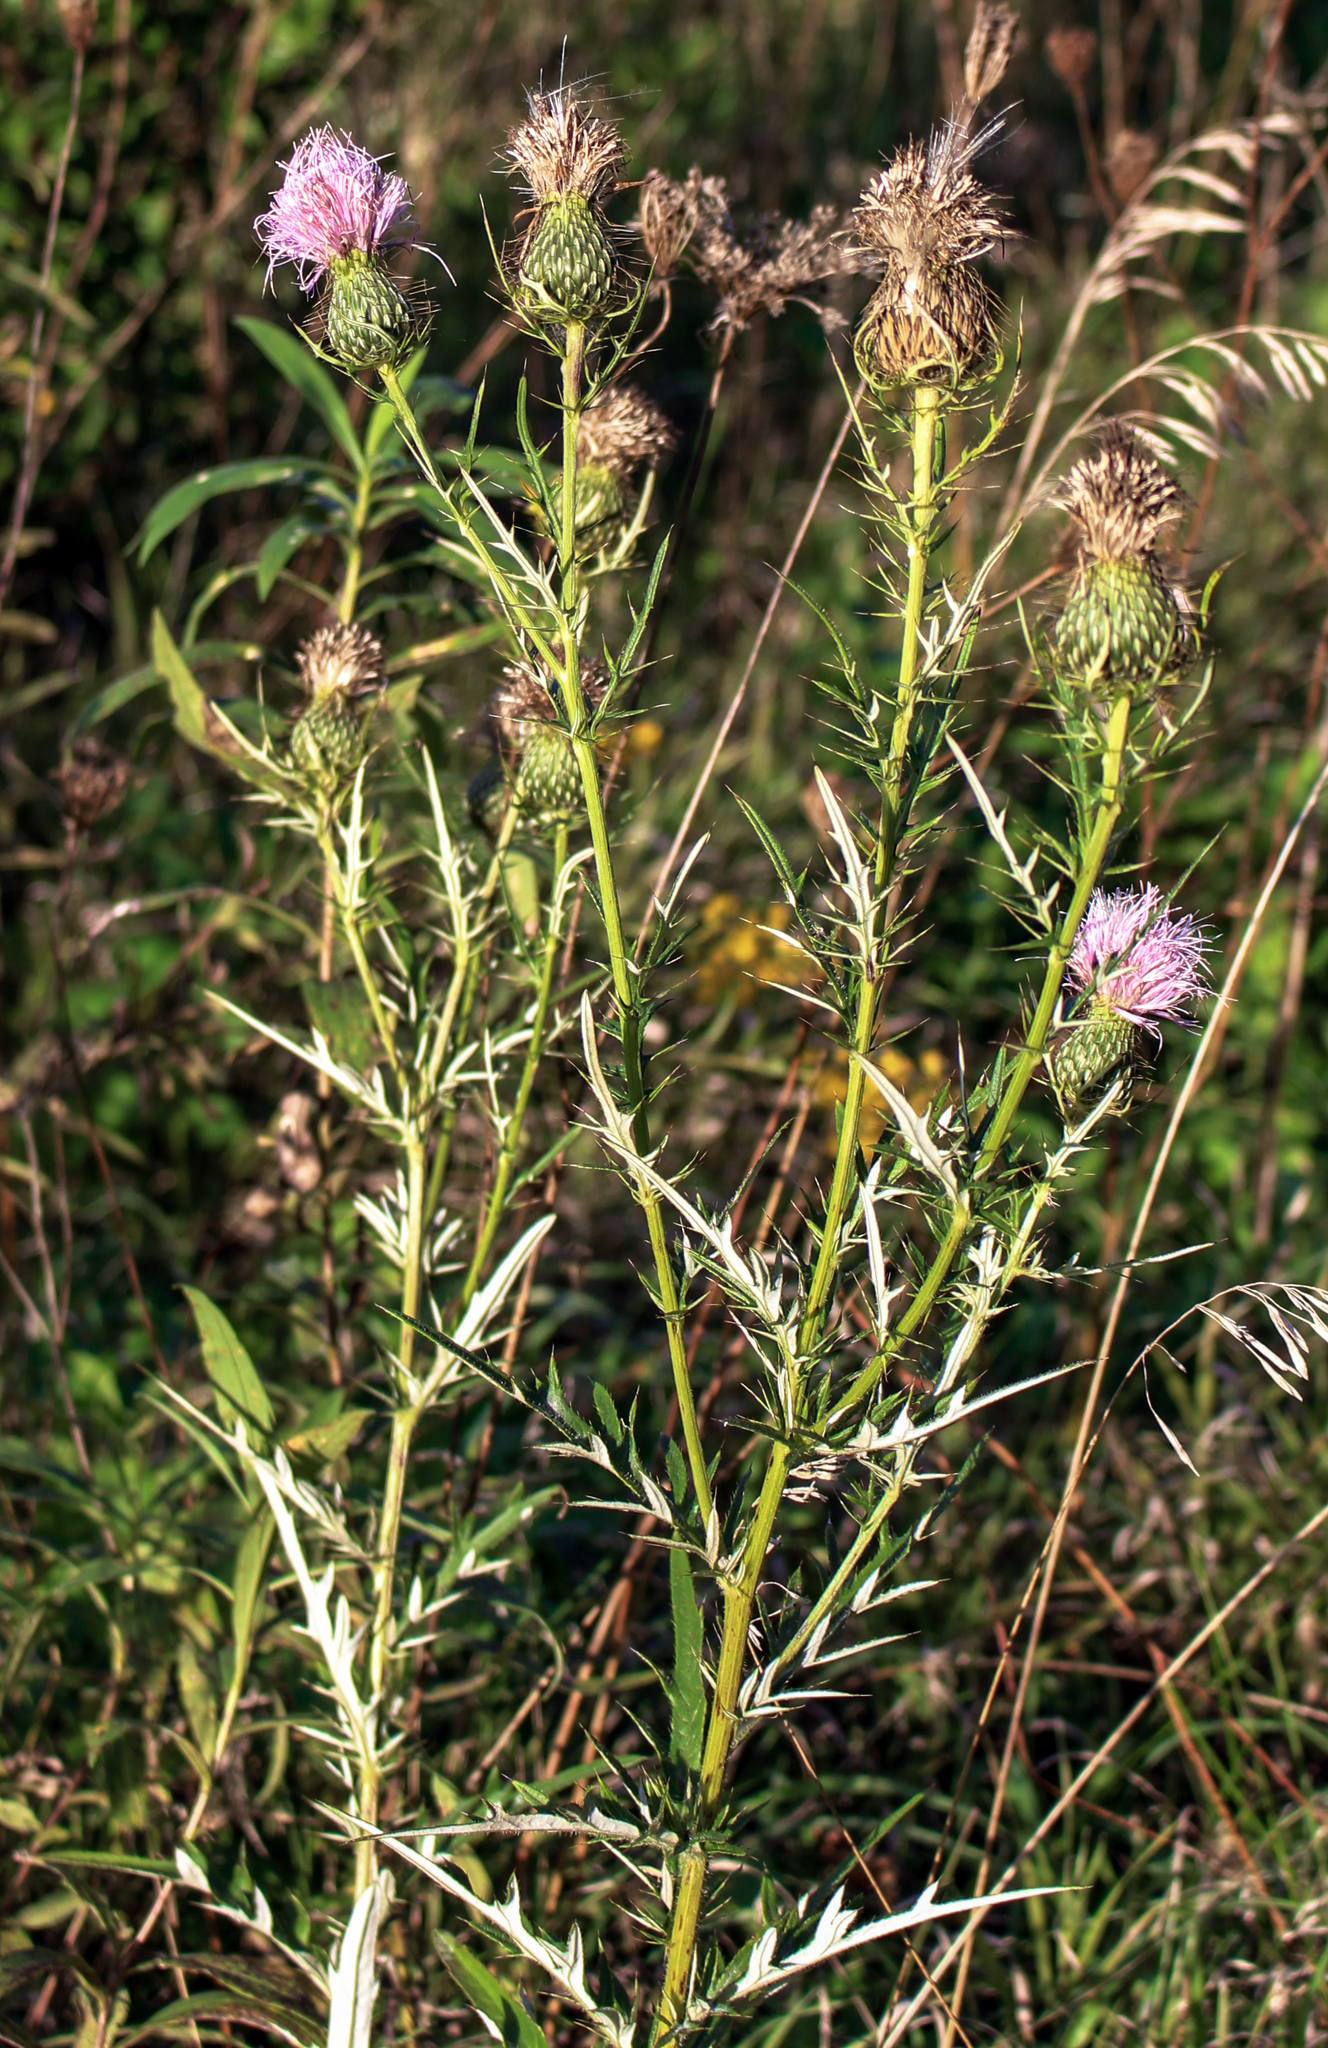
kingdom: Plantae
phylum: Tracheophyta
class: Magnoliopsida
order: Asterales
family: Asteraceae
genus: Cirsium
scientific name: Cirsium discolor
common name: Field thistle
